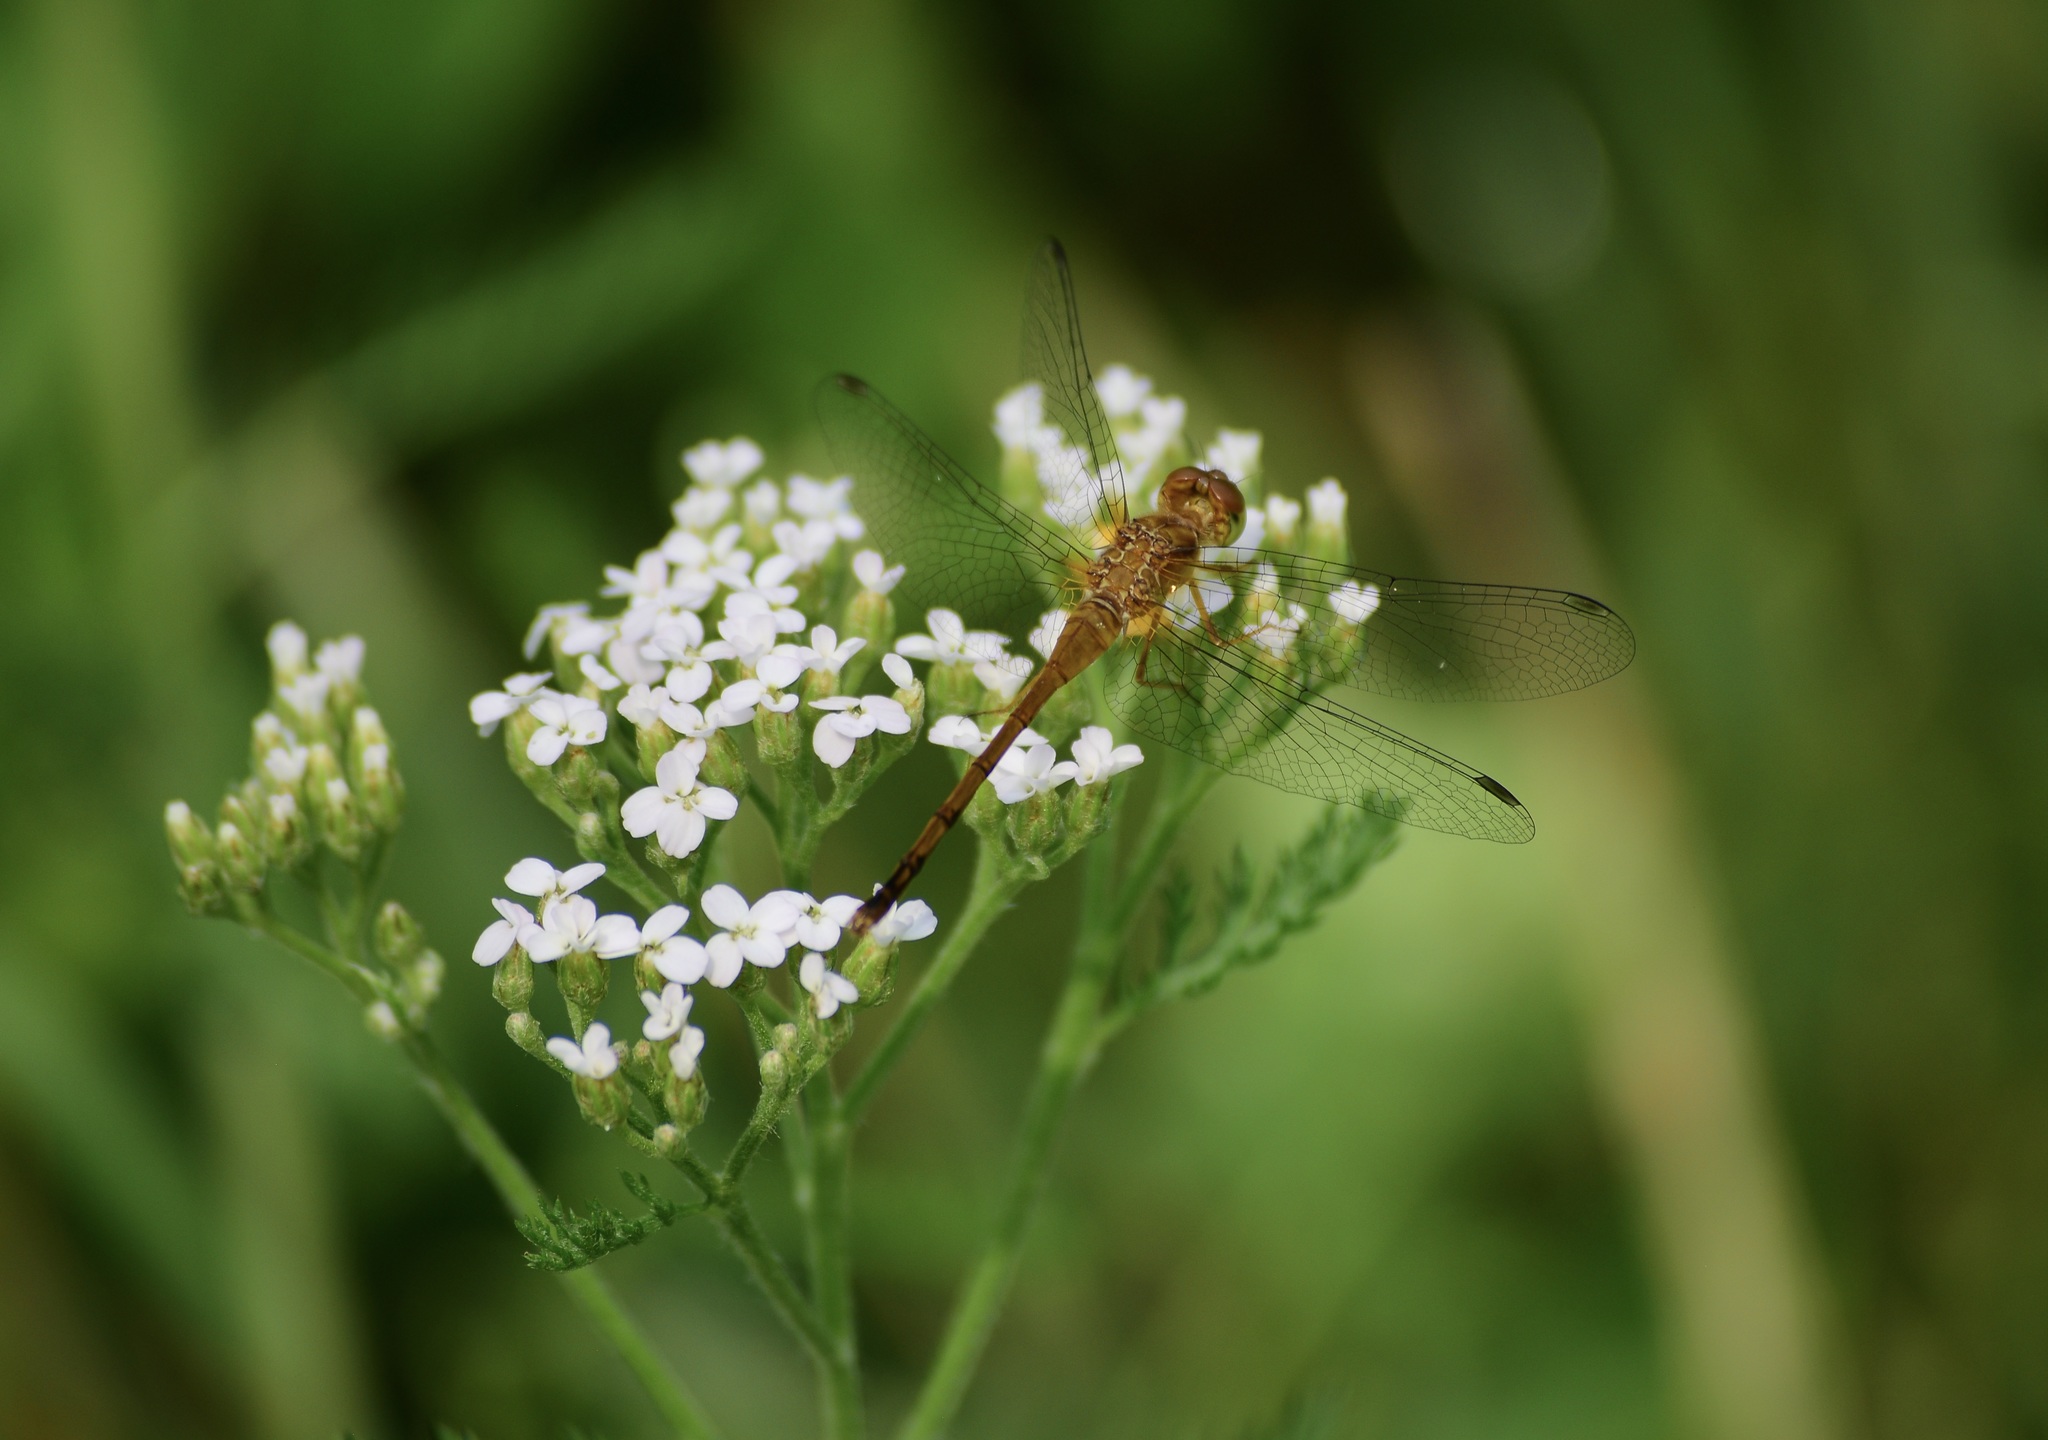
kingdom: Animalia
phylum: Arthropoda
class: Insecta
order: Odonata
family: Libellulidae
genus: Sympetrum
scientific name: Sympetrum vicinum
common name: Autumn meadowhawk
